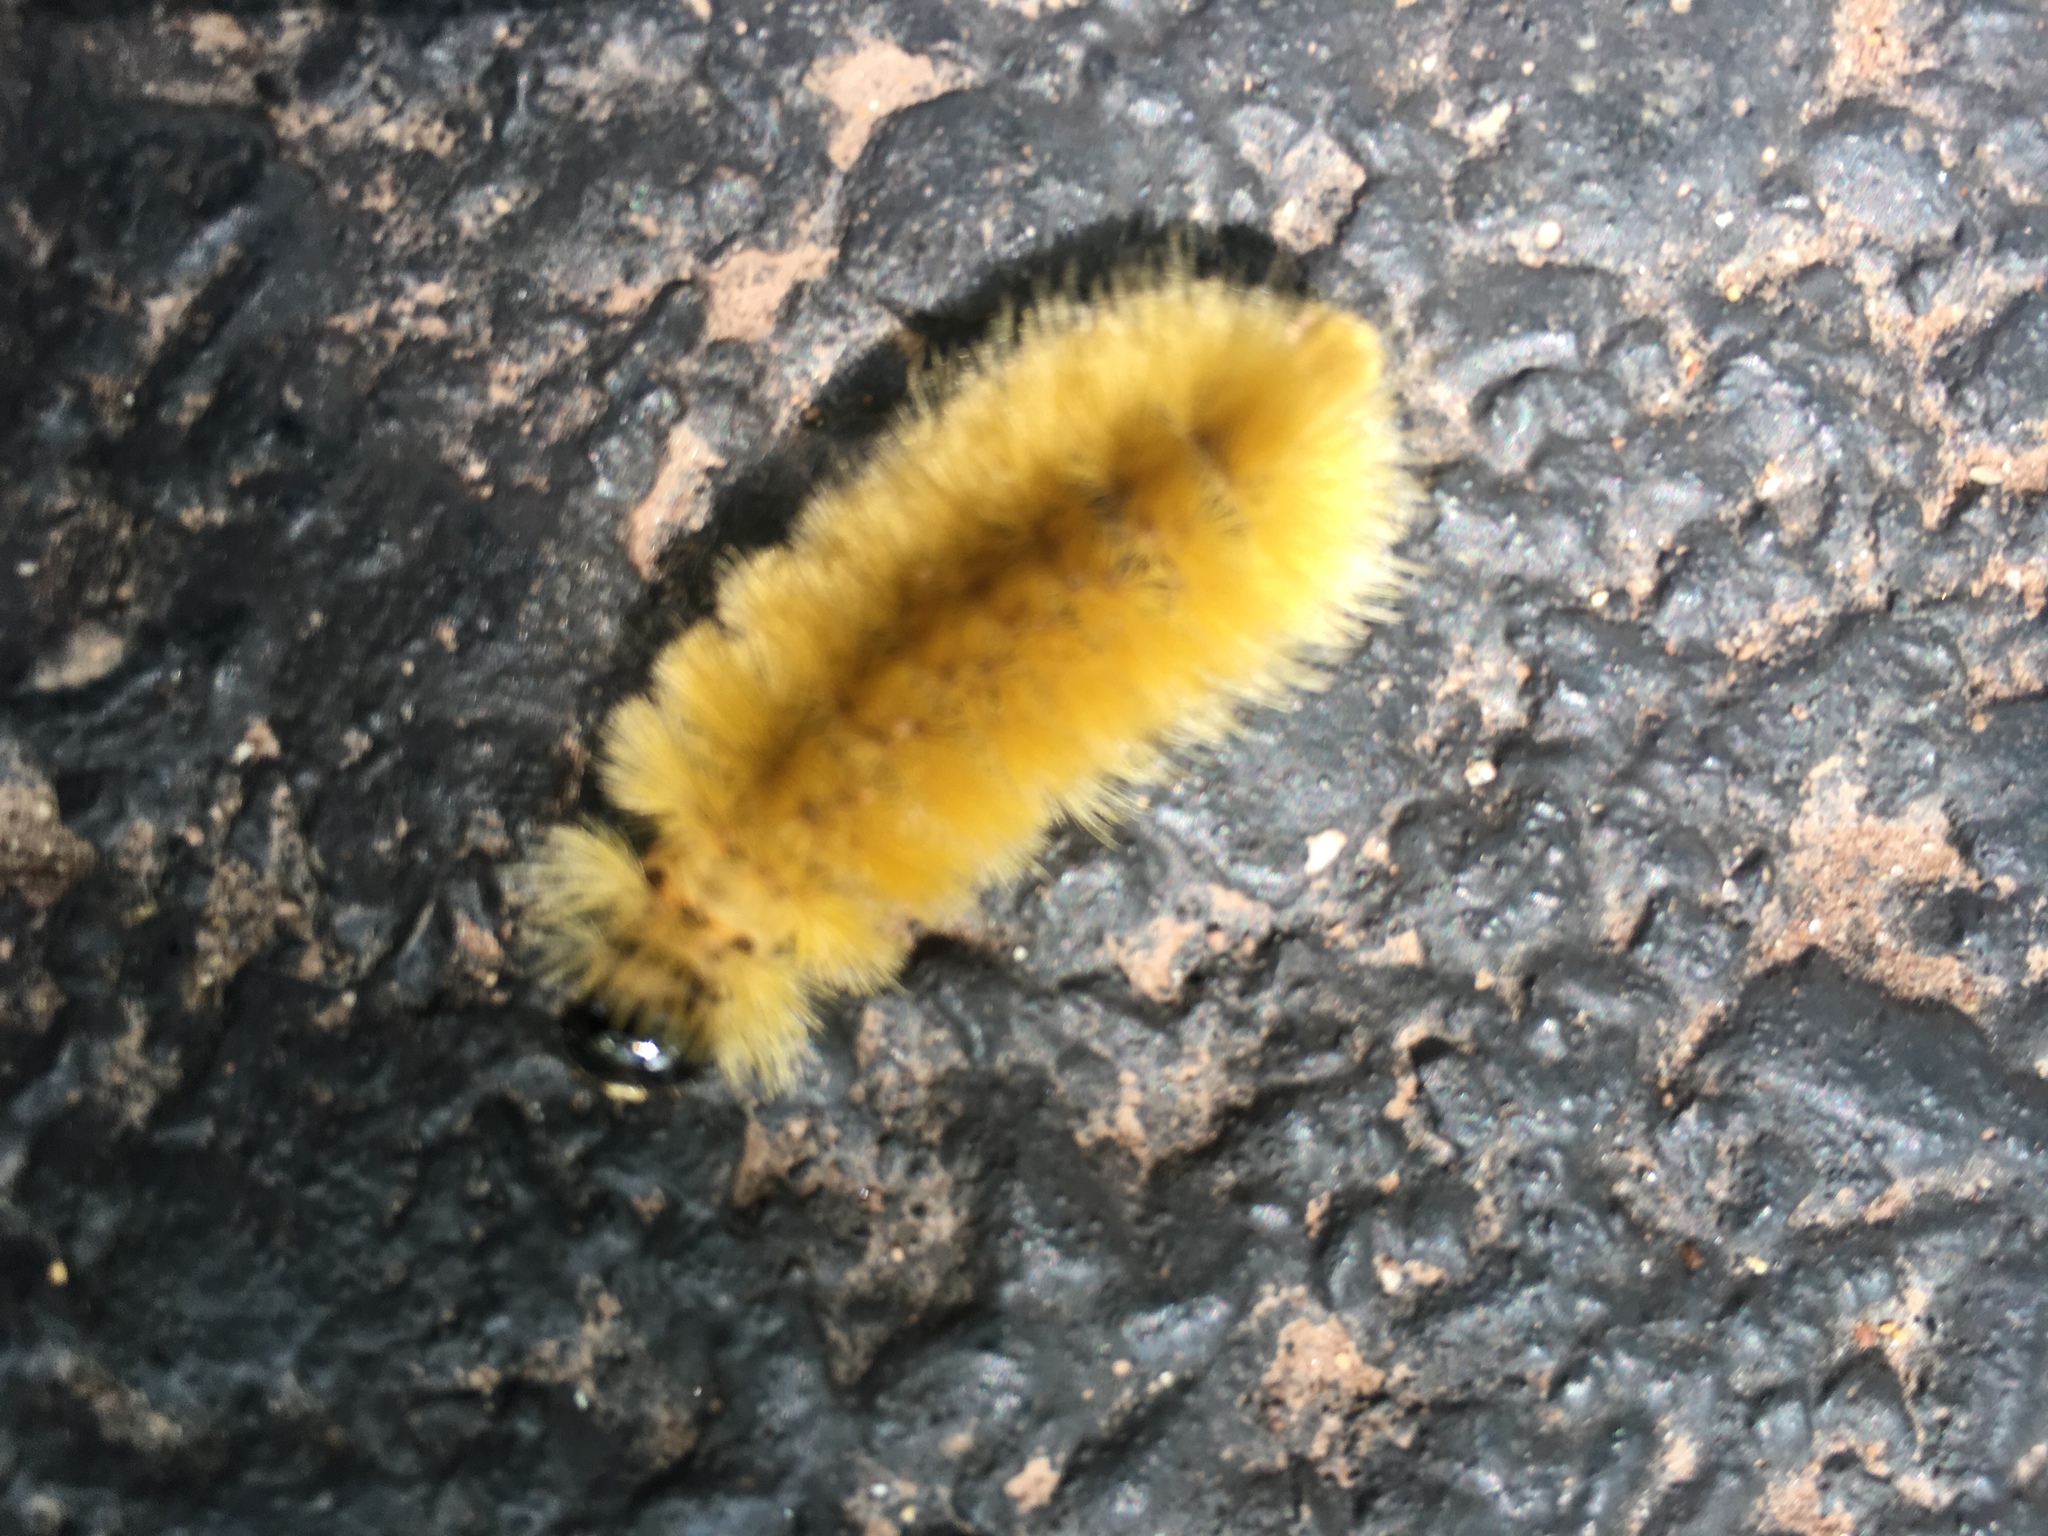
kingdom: Animalia
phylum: Arthropoda
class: Insecta
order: Lepidoptera
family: Erebidae
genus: Halysidota
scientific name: Halysidota tessellaris
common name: Banded tussock moth
